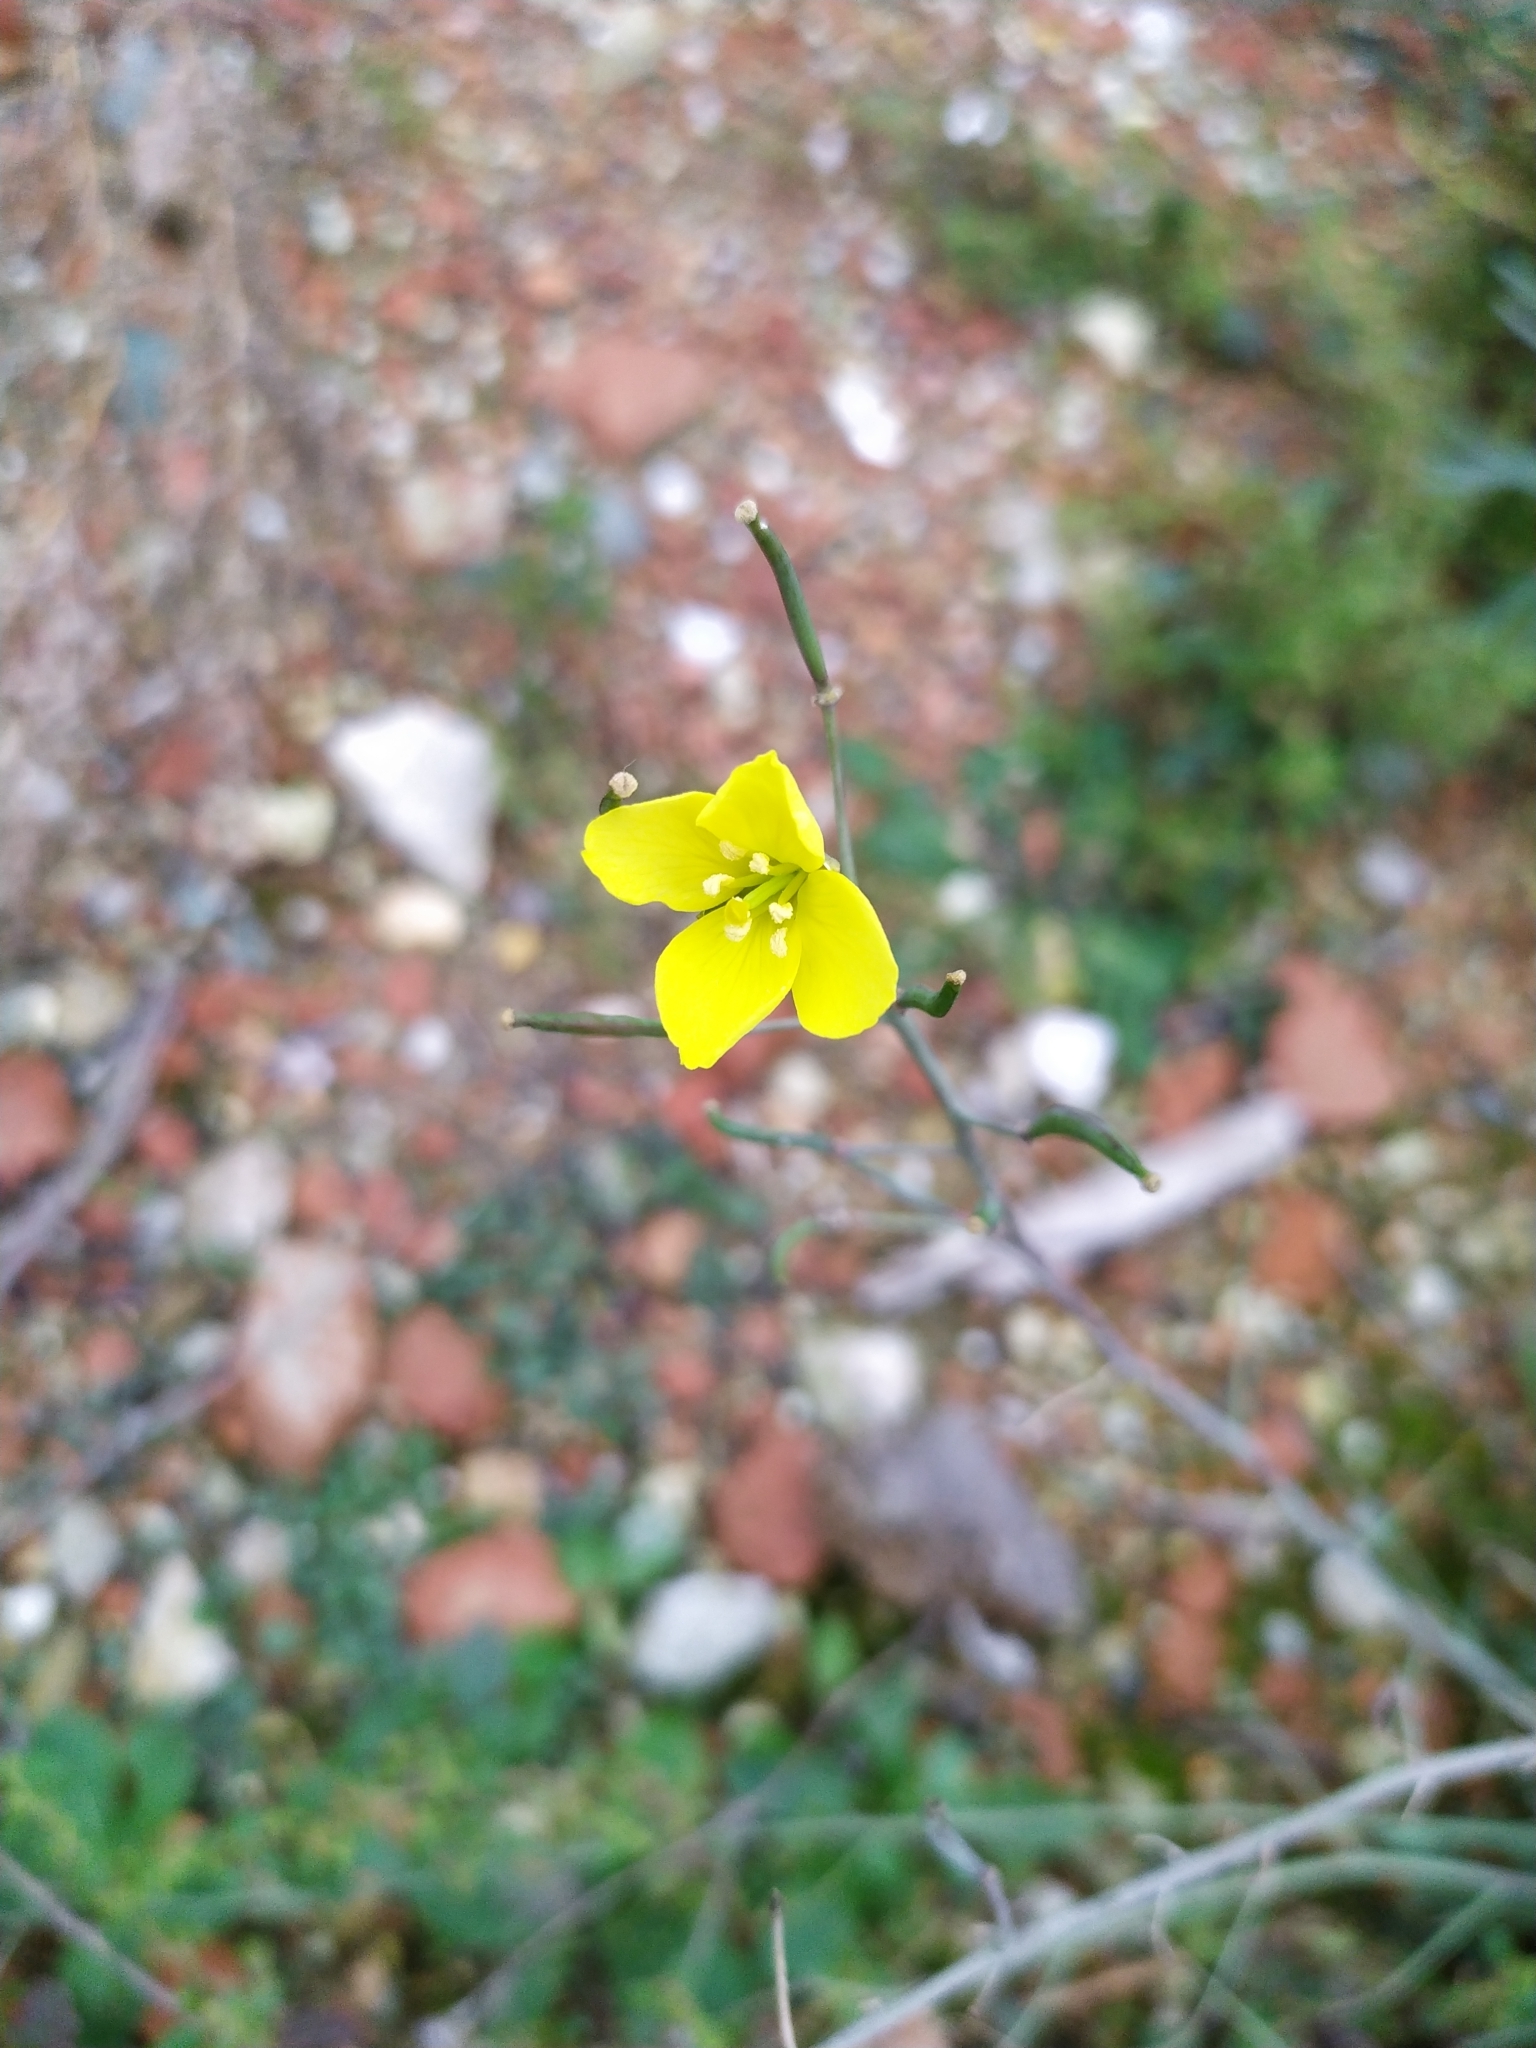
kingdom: Plantae
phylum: Tracheophyta
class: Magnoliopsida
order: Brassicales
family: Brassicaceae
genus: Diplotaxis
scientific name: Diplotaxis tenuifolia
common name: Perennial wall-rocket
